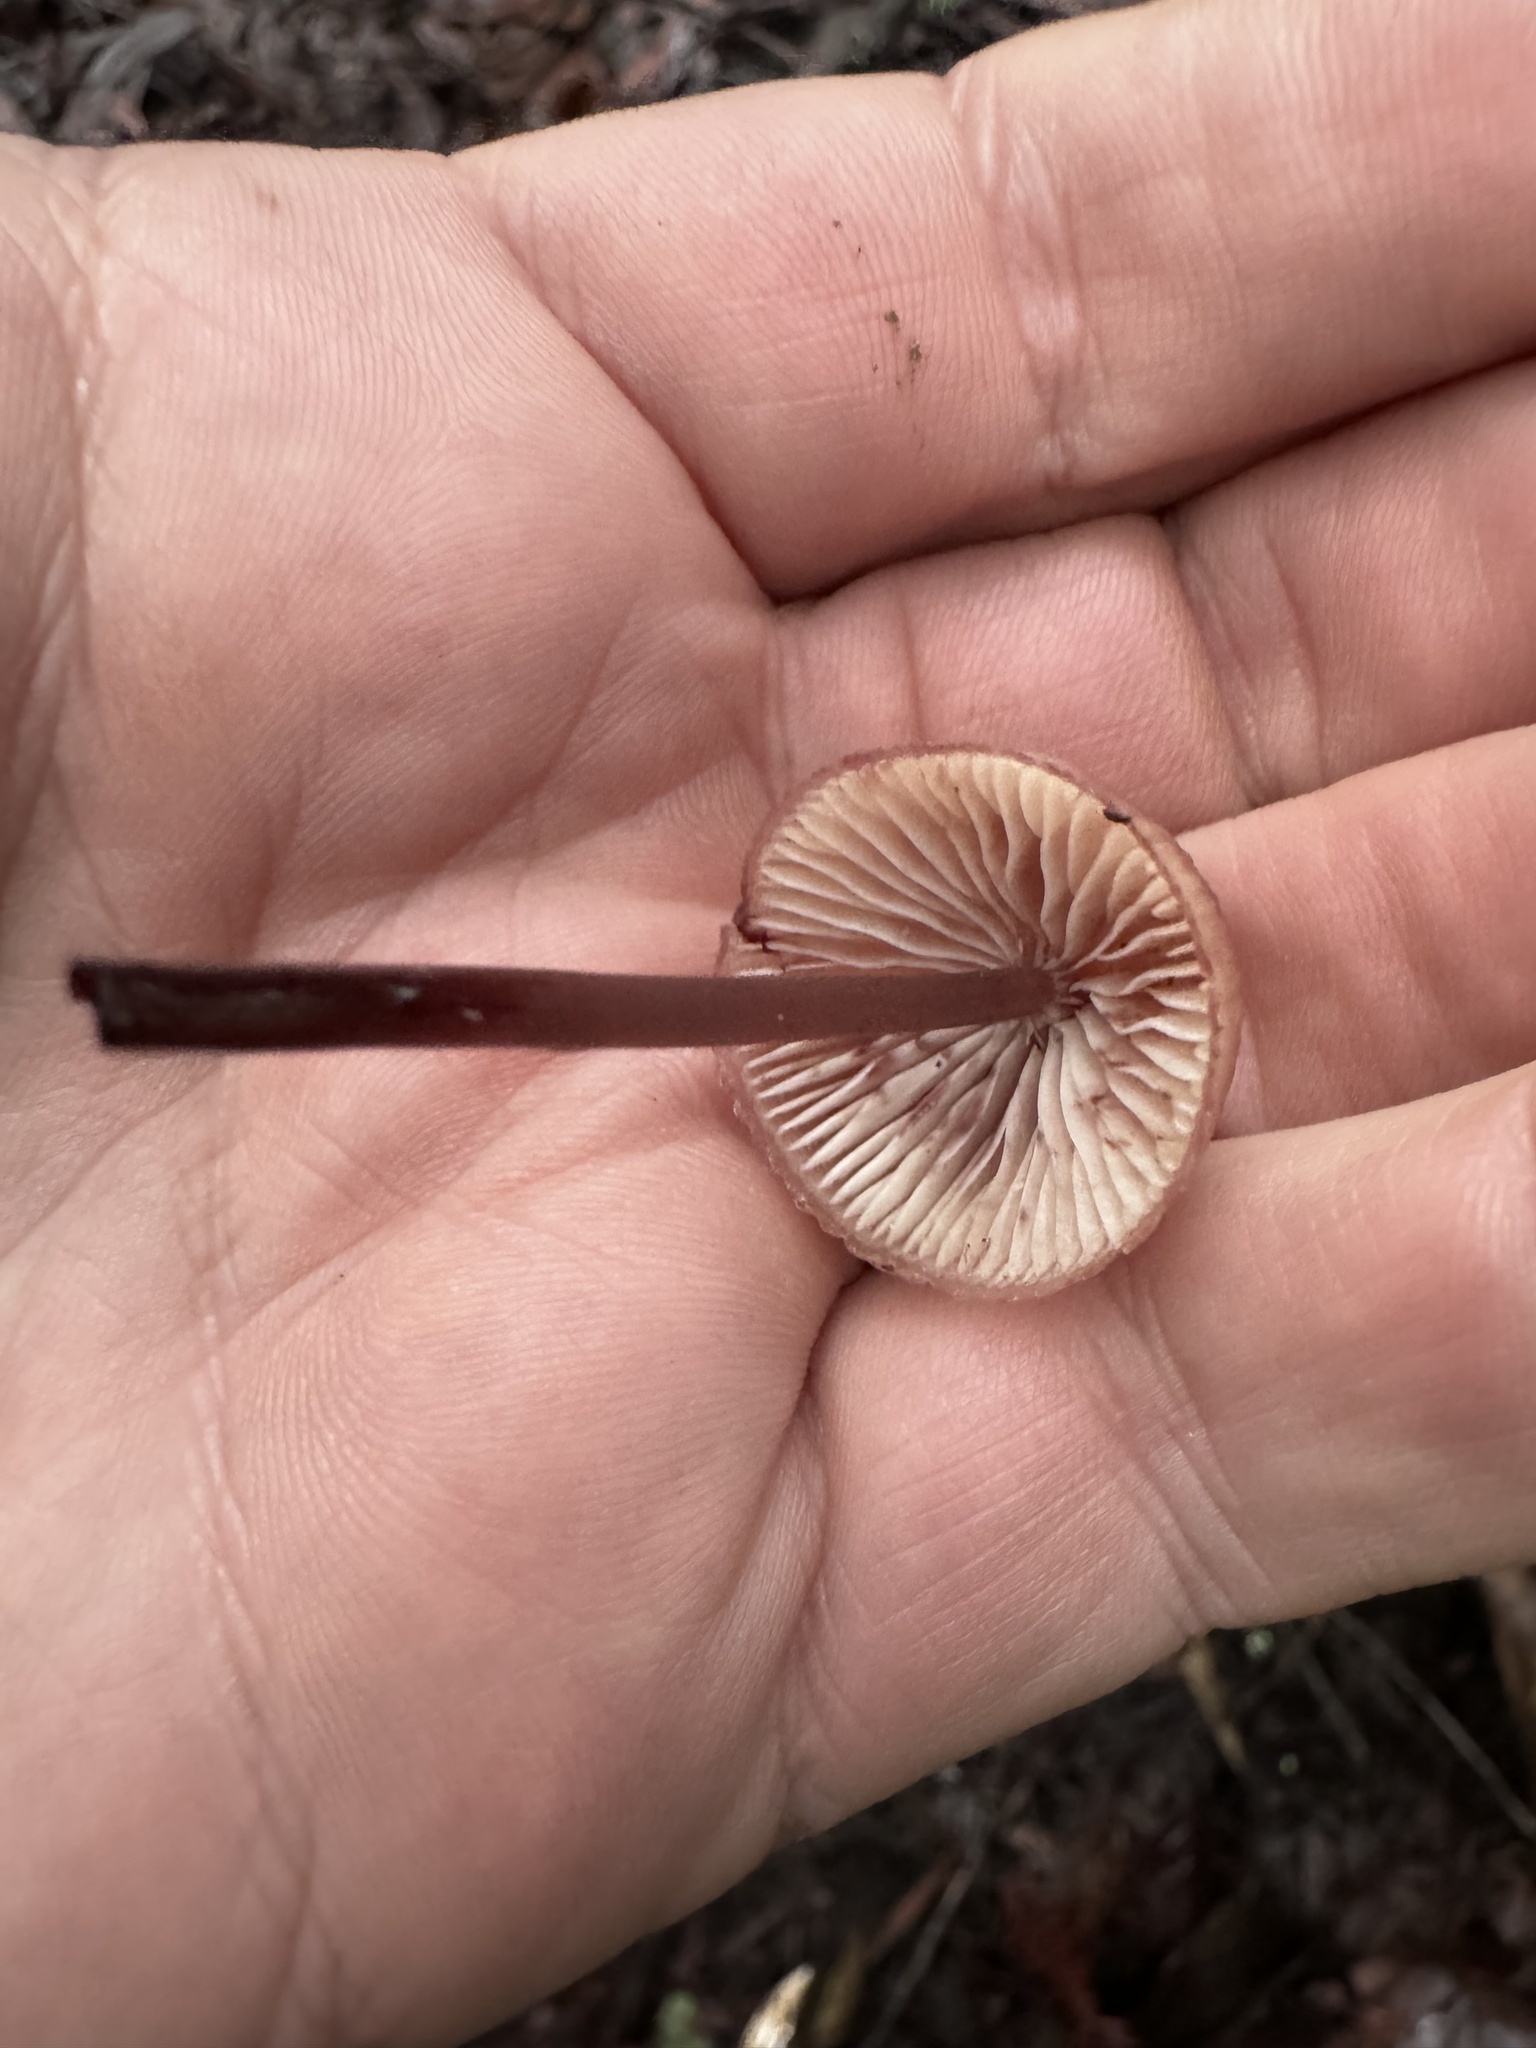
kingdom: Fungi
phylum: Basidiomycota
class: Agaricomycetes
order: Agaricales
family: Mycenaceae
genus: Mycena
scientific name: Mycena haematopus
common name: Burgundydrop bonnet
